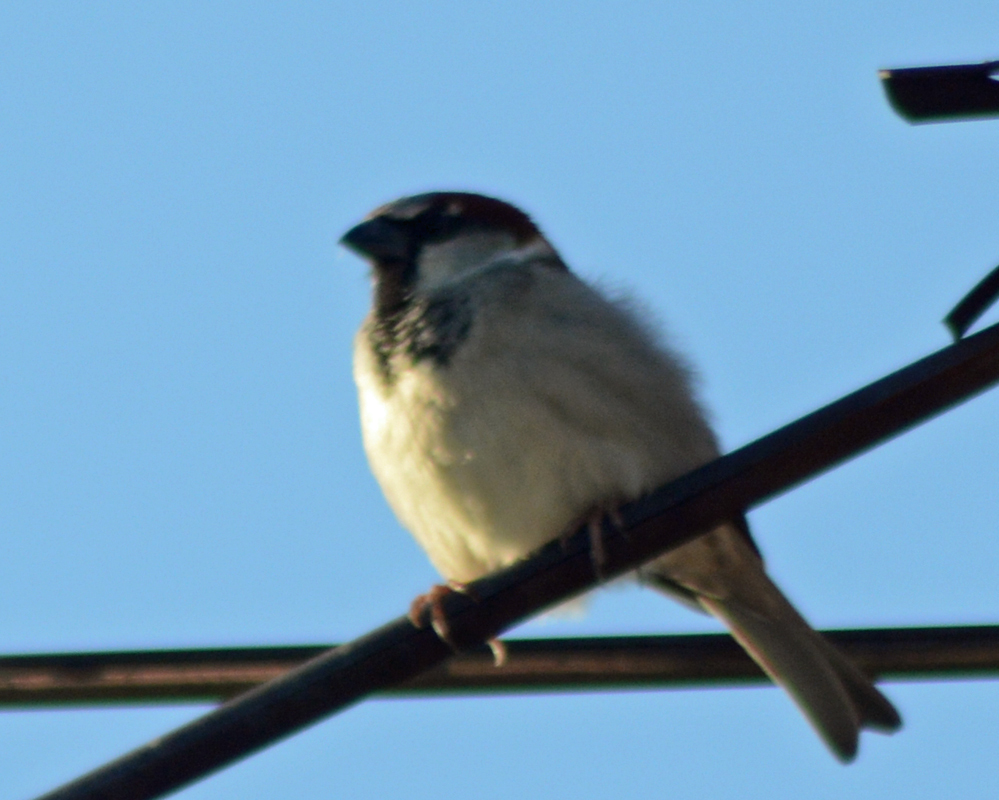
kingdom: Animalia
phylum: Chordata
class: Aves
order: Passeriformes
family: Passeridae
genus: Passer
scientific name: Passer domesticus
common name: House sparrow
